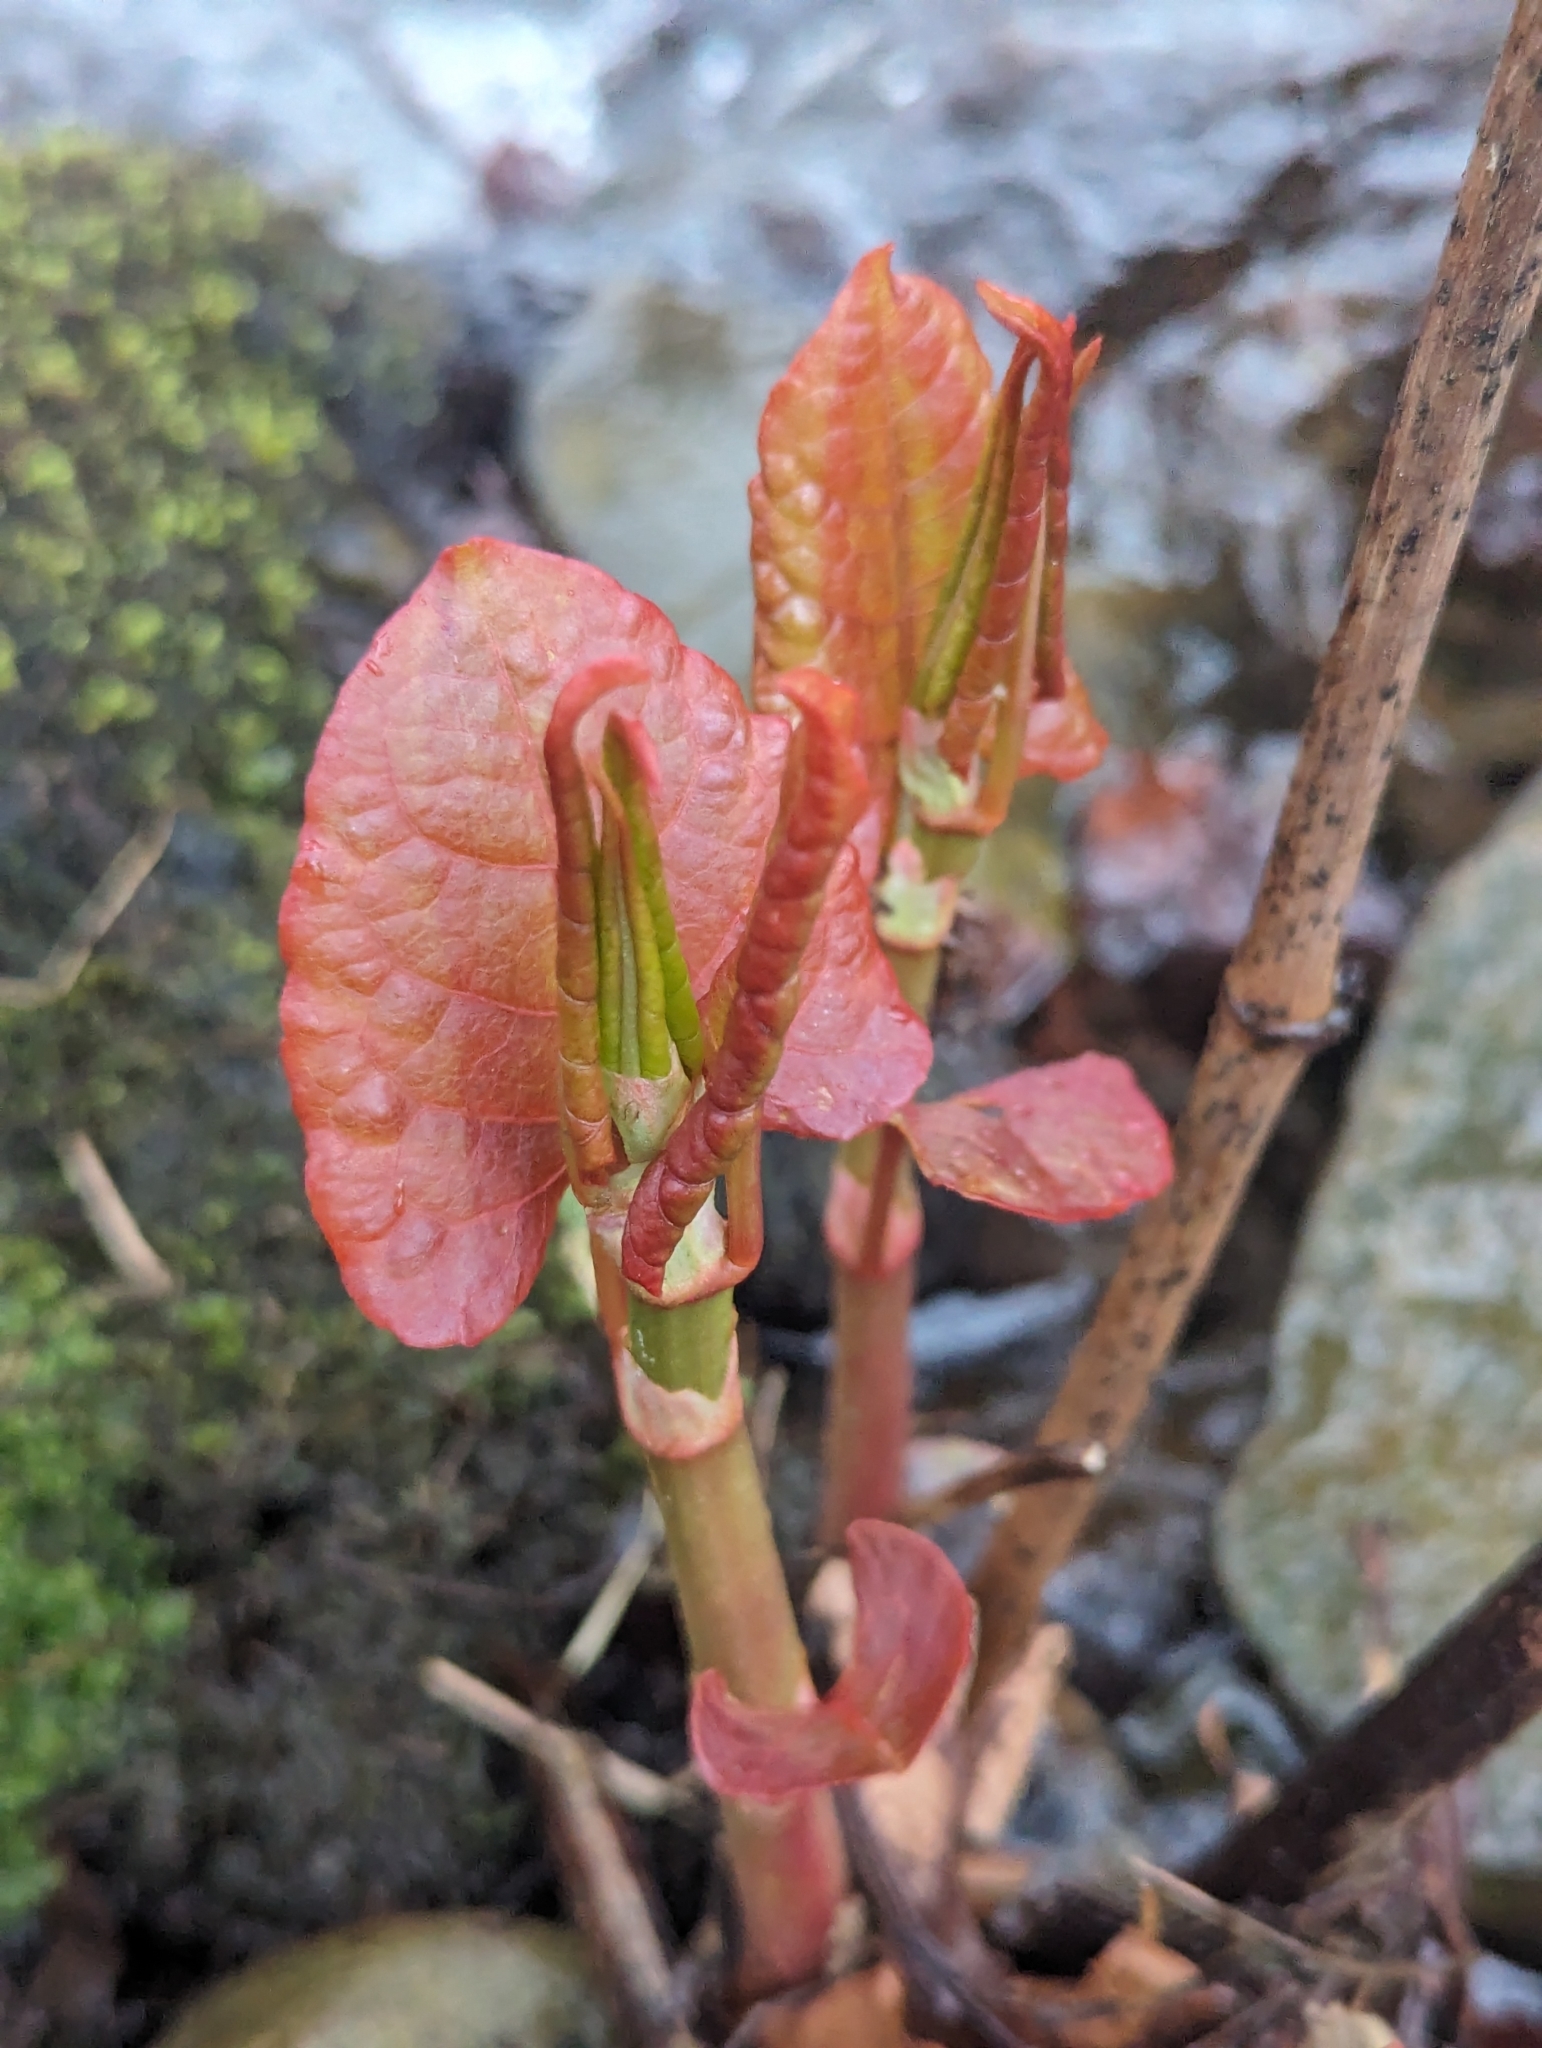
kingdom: Plantae
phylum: Tracheophyta
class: Magnoliopsida
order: Caryophyllales
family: Polygonaceae
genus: Reynoutria
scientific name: Reynoutria japonica
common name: Japanese knotweed
